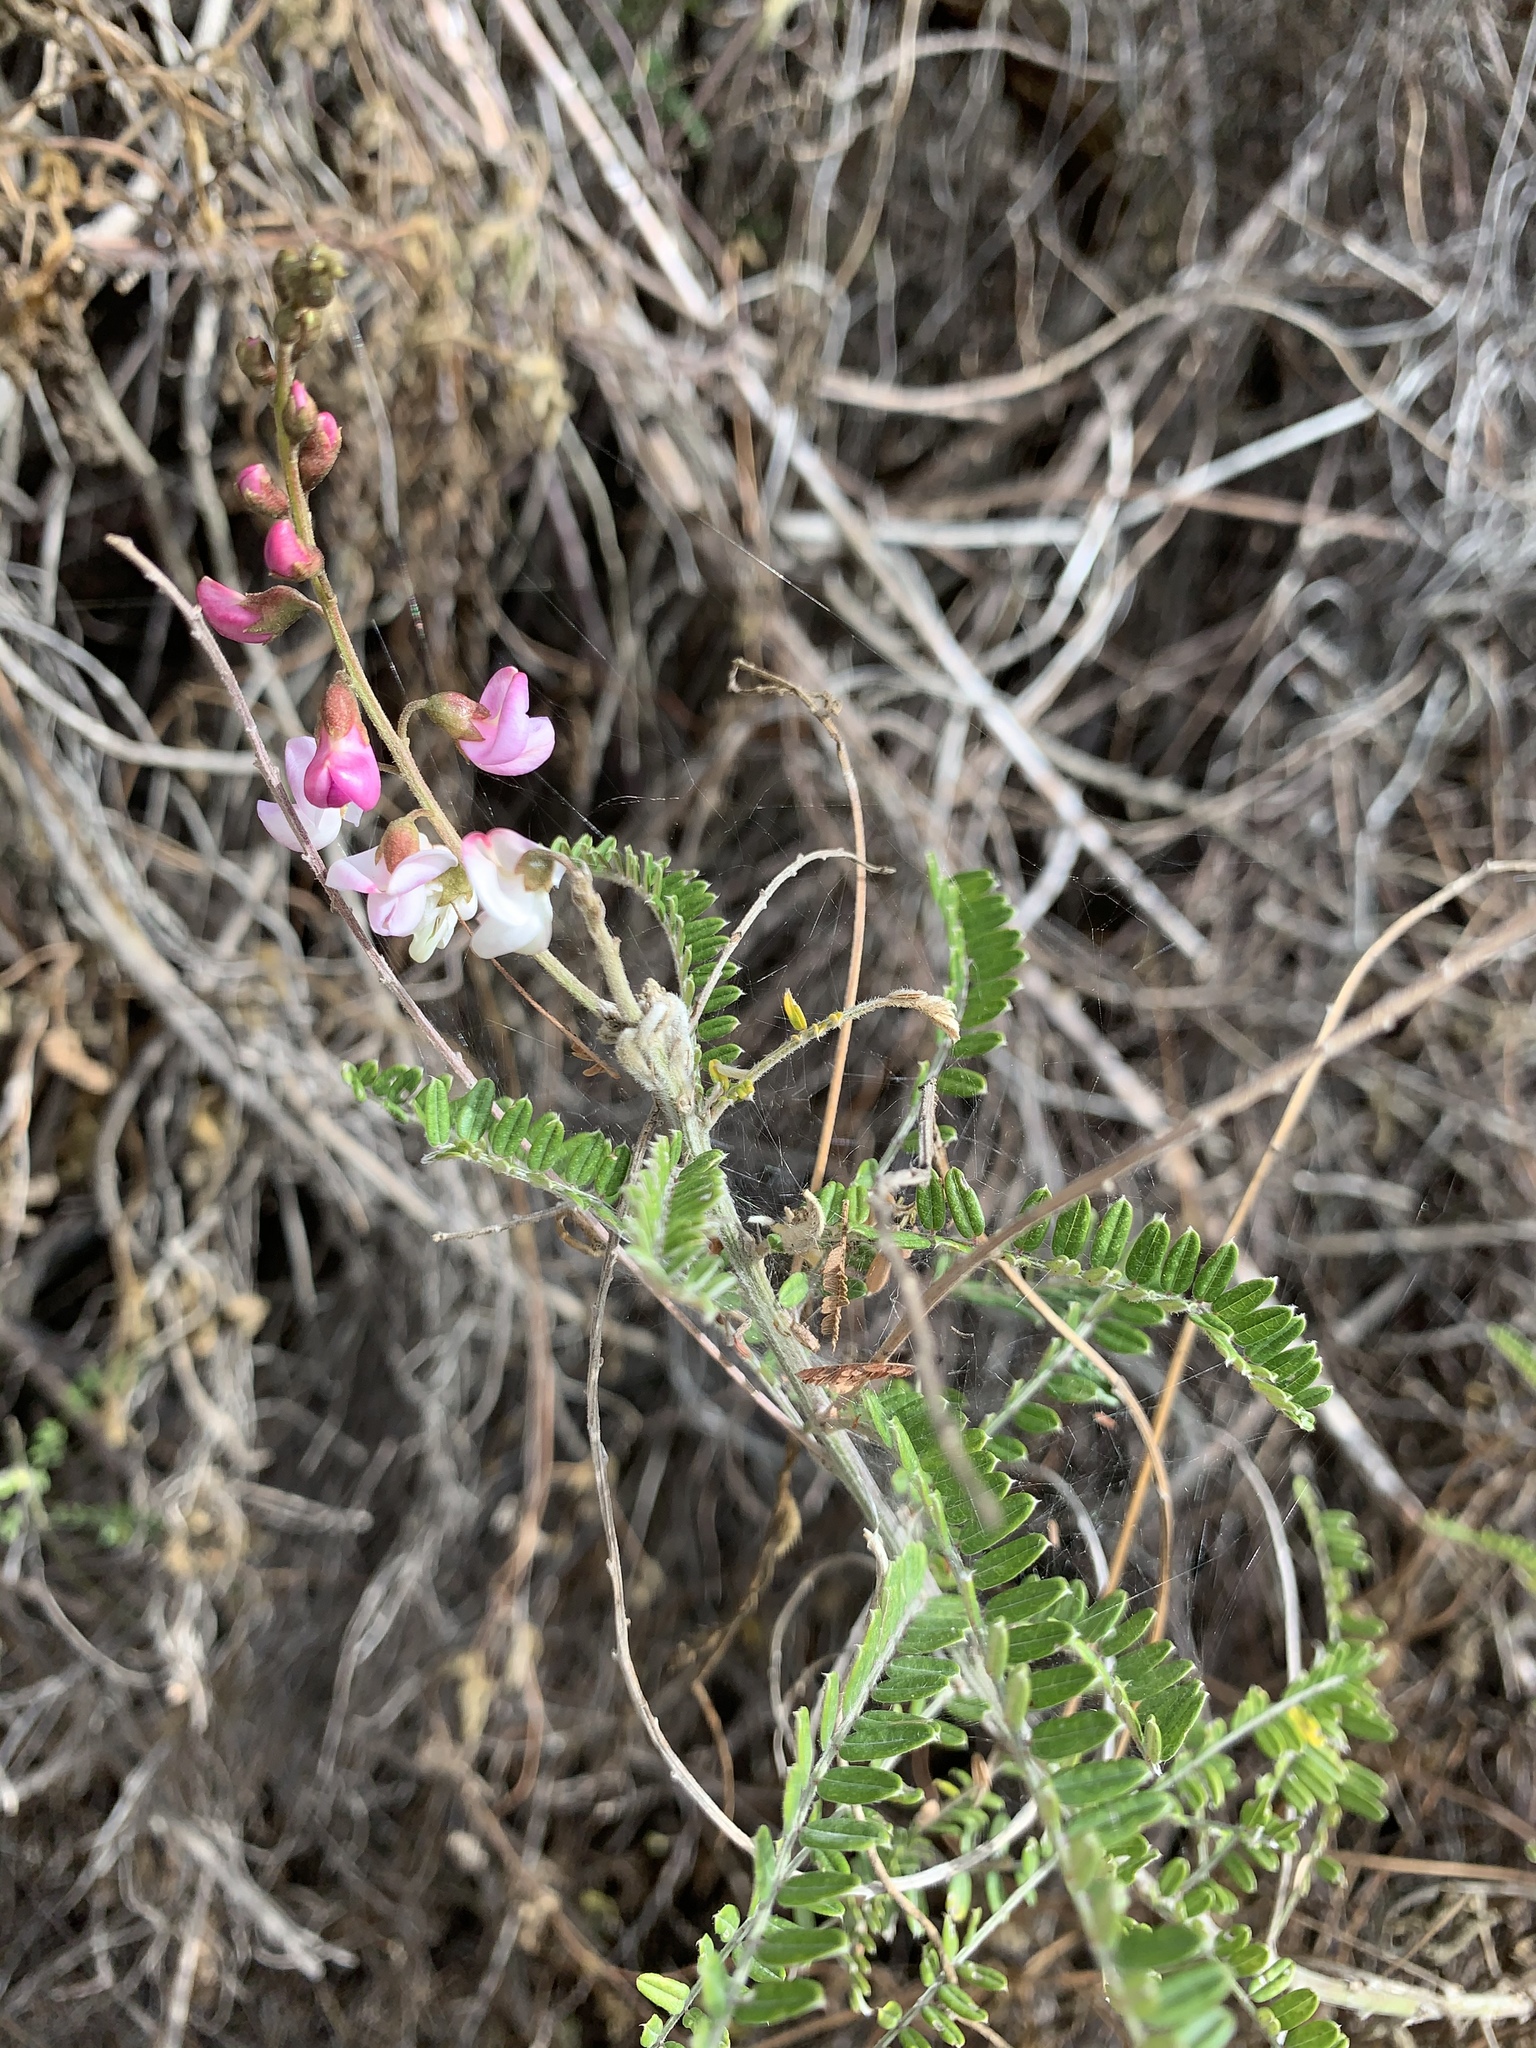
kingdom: Plantae
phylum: Tracheophyta
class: Magnoliopsida
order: Fabales
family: Fabaceae
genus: Coursetia
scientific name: Coursetia dubia
